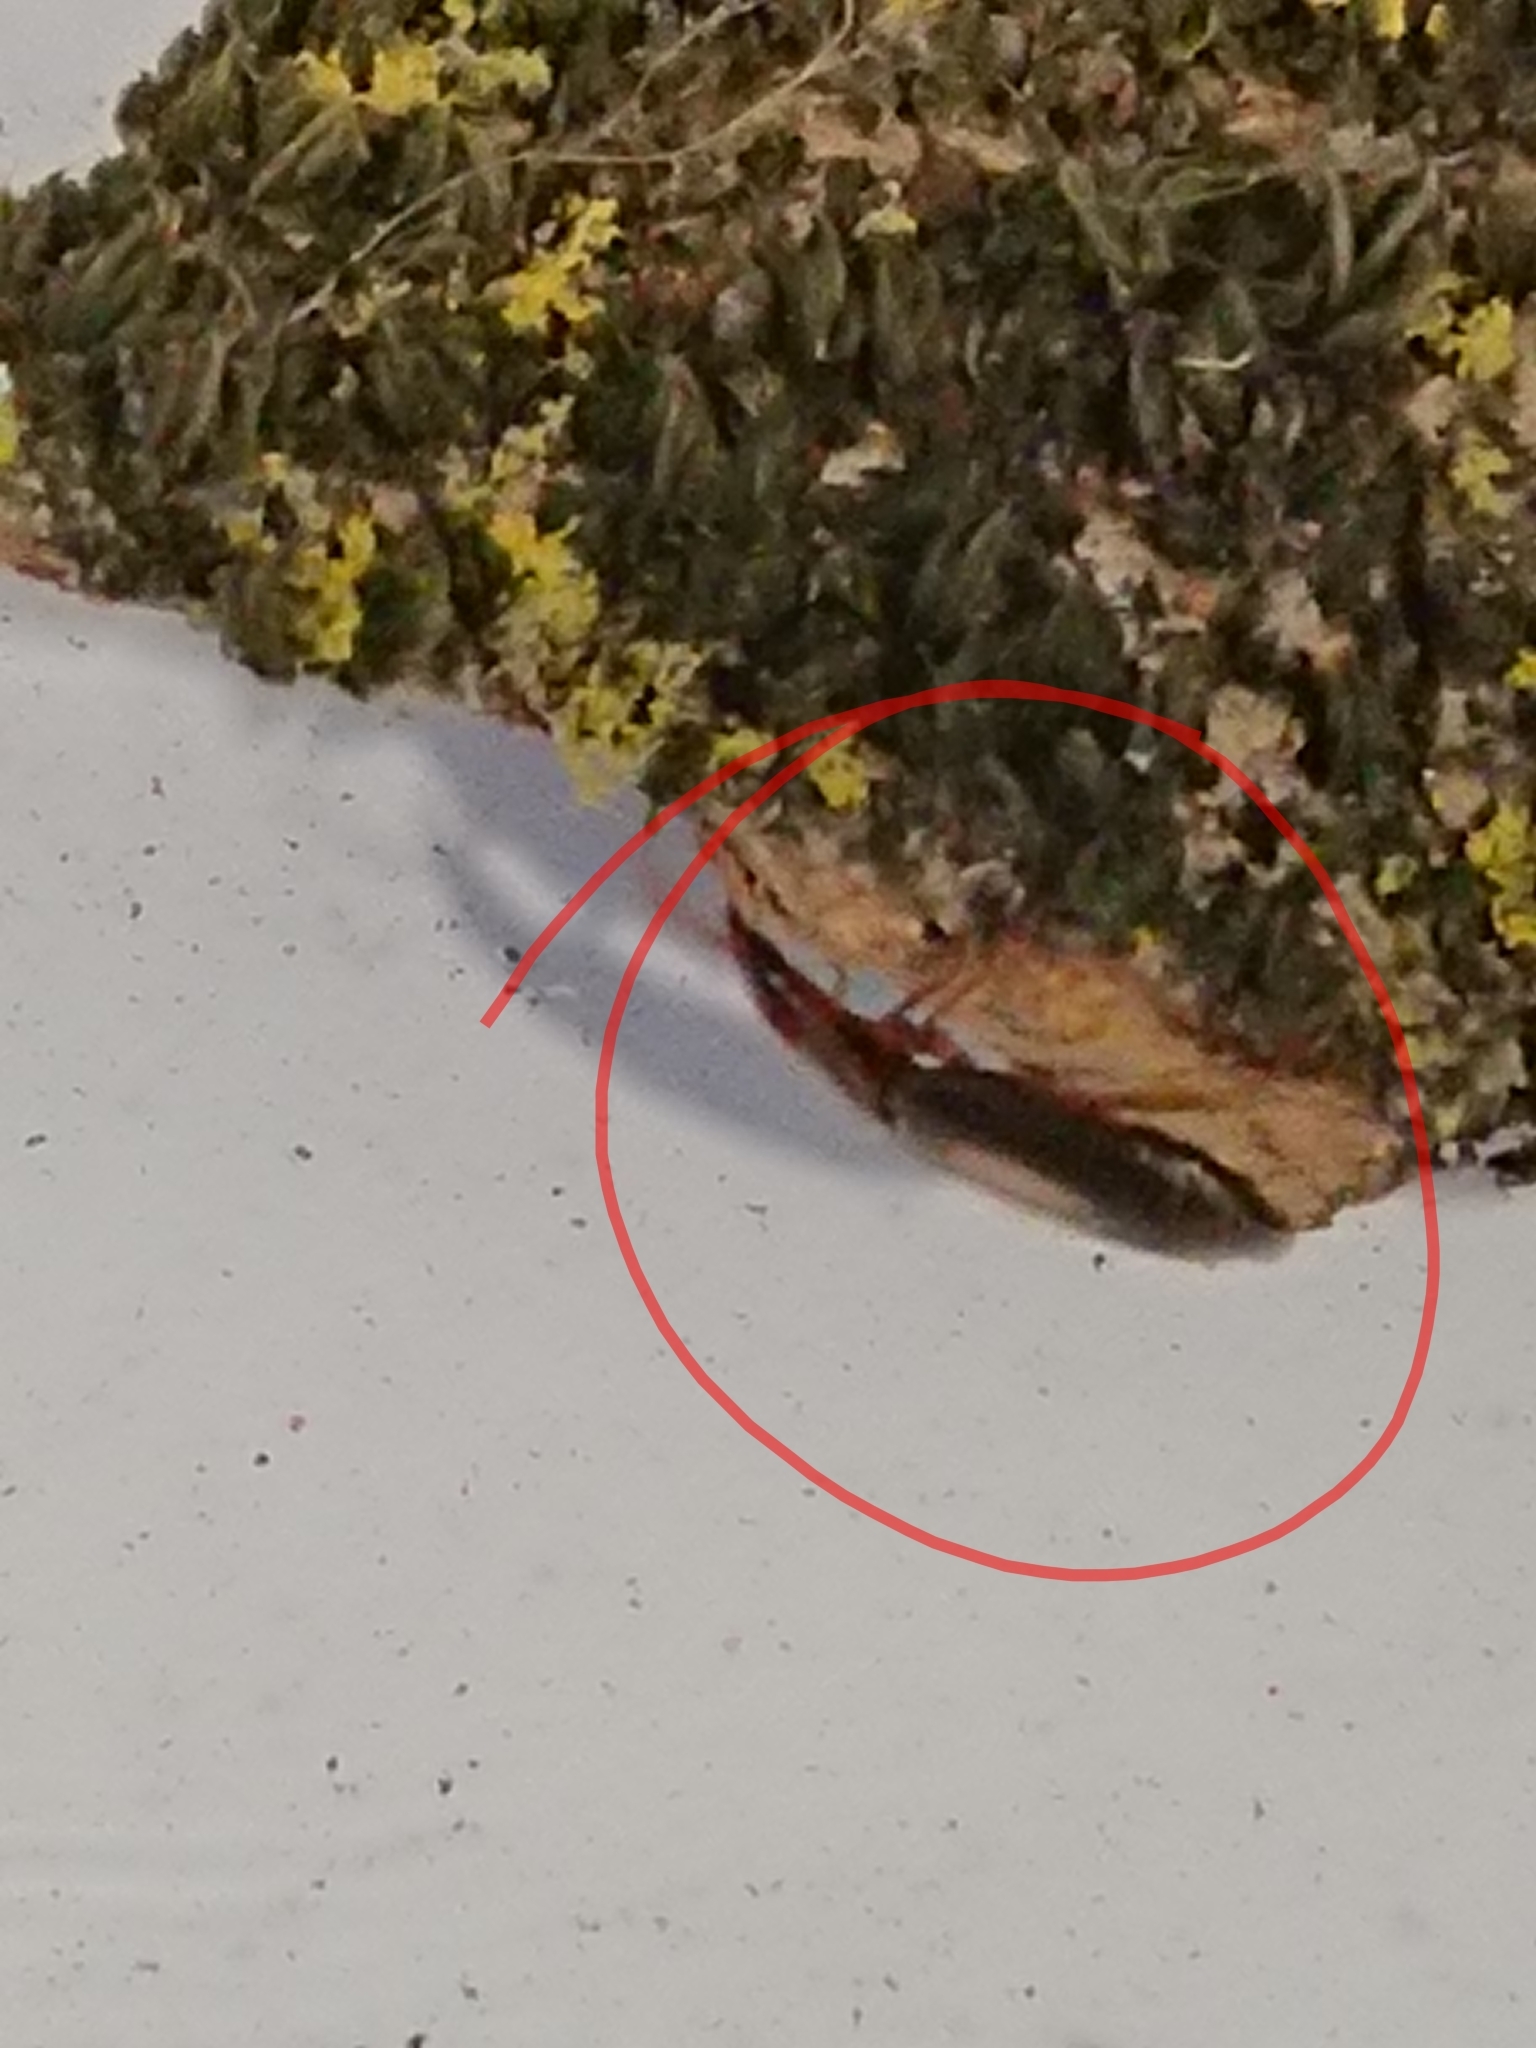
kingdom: Animalia
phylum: Arthropoda
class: Insecta
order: Coleoptera
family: Carabidae
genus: Agonocheila
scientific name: Agonocheila antipodum
